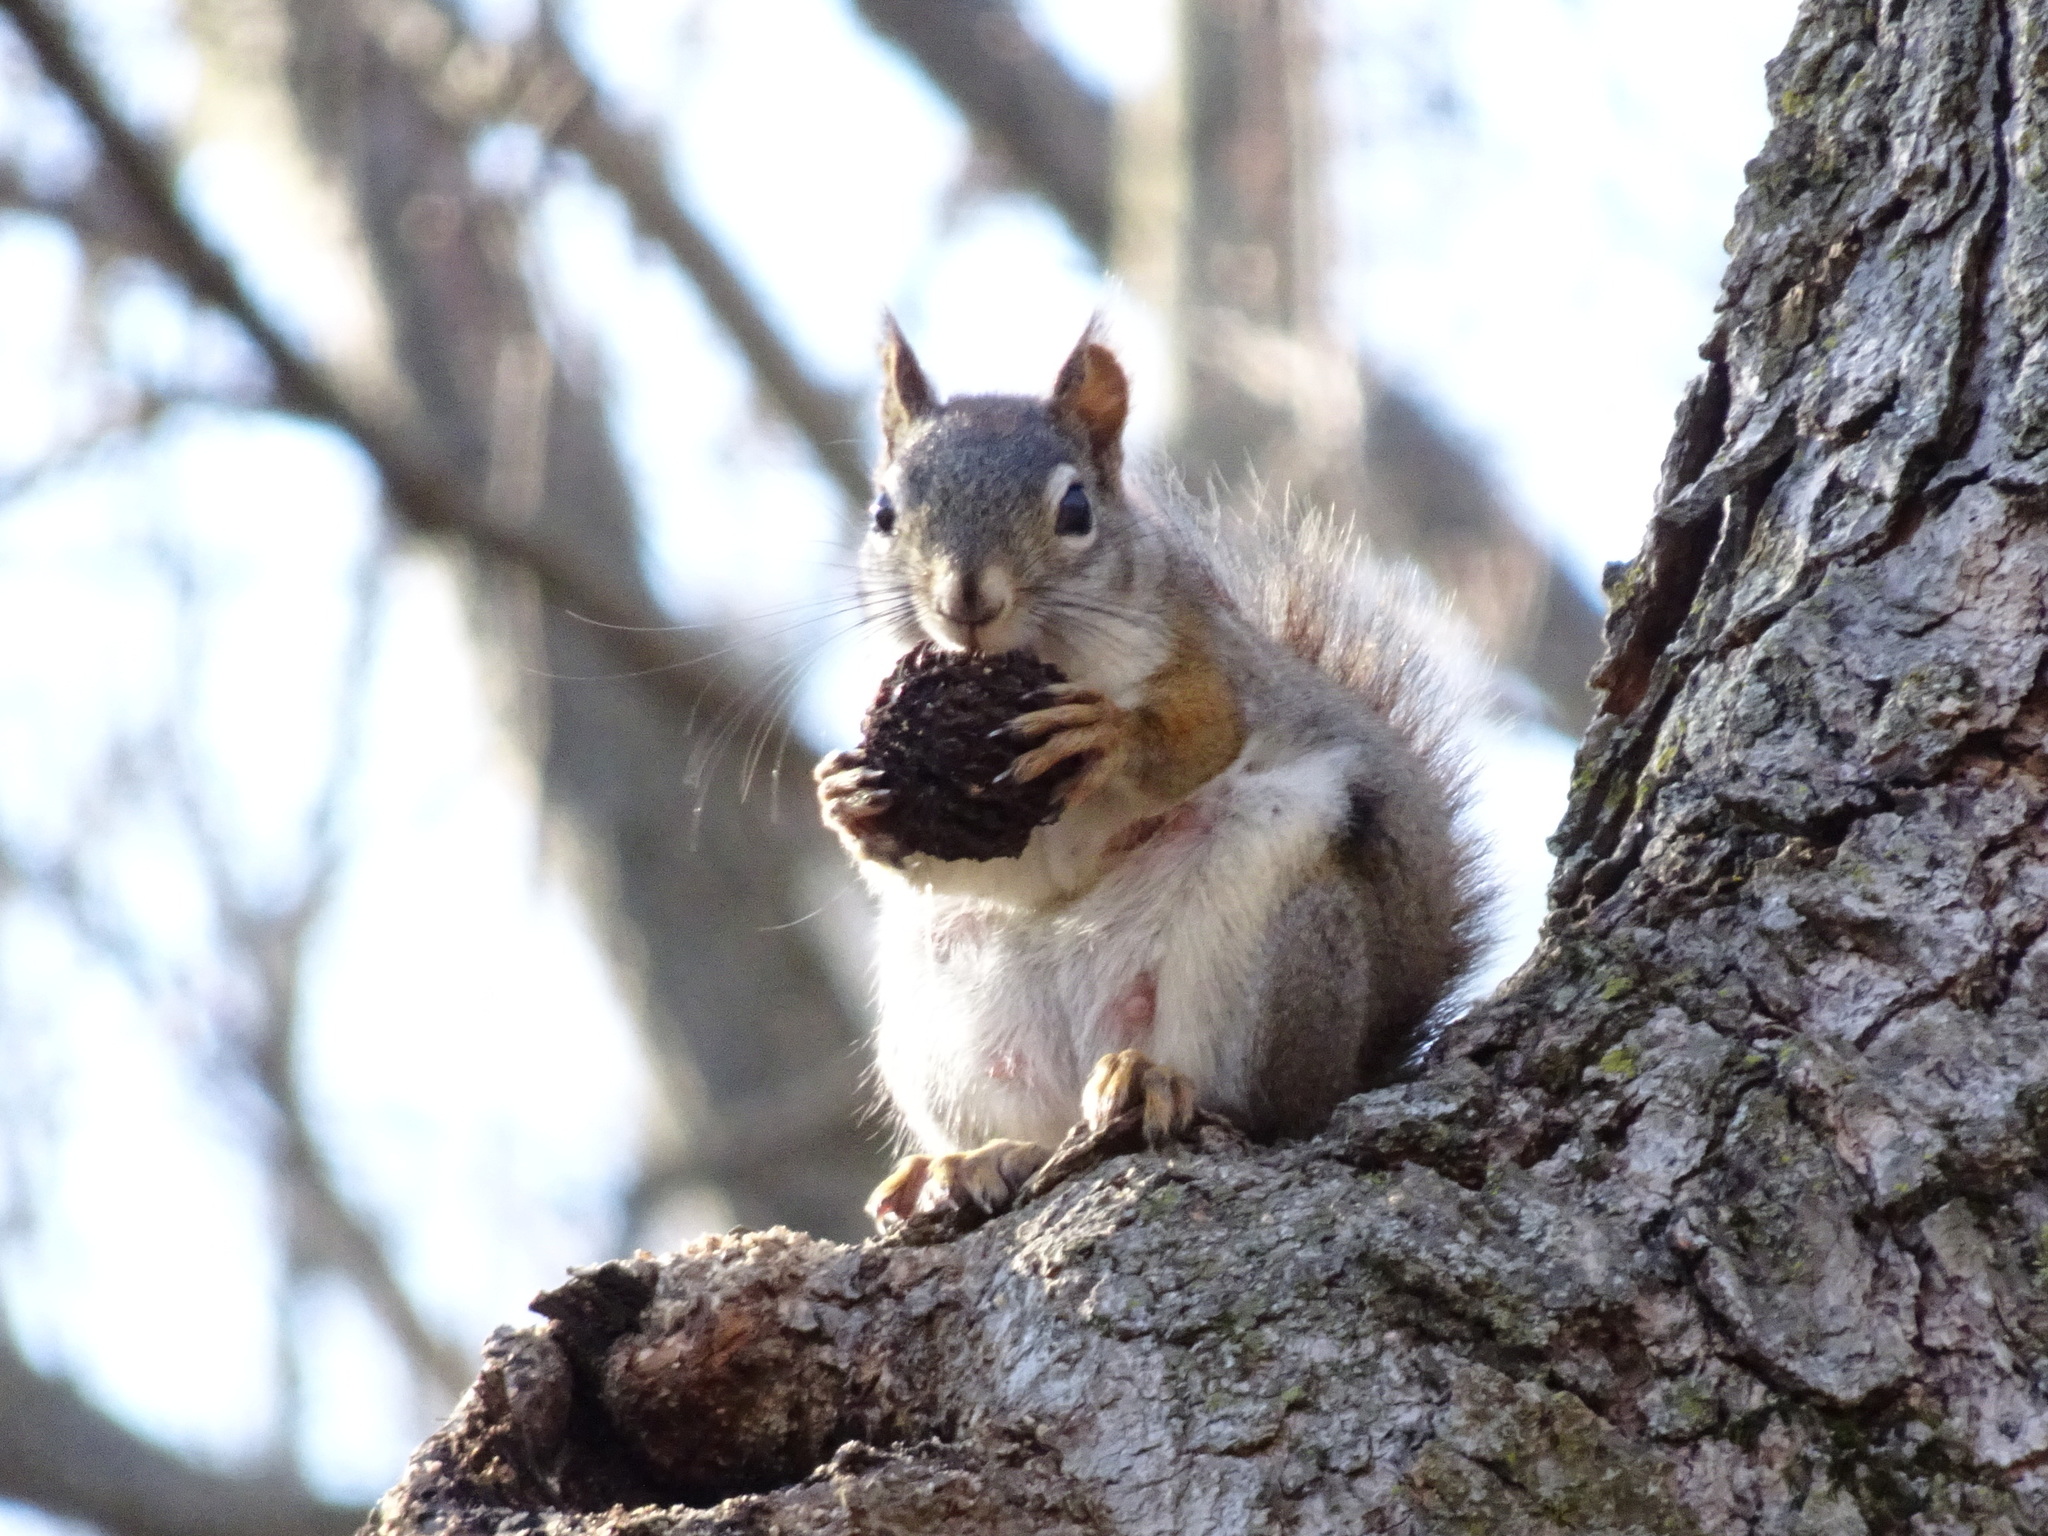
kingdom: Animalia
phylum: Chordata
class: Mammalia
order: Rodentia
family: Sciuridae
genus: Tamiasciurus
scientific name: Tamiasciurus hudsonicus
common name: Red squirrel
